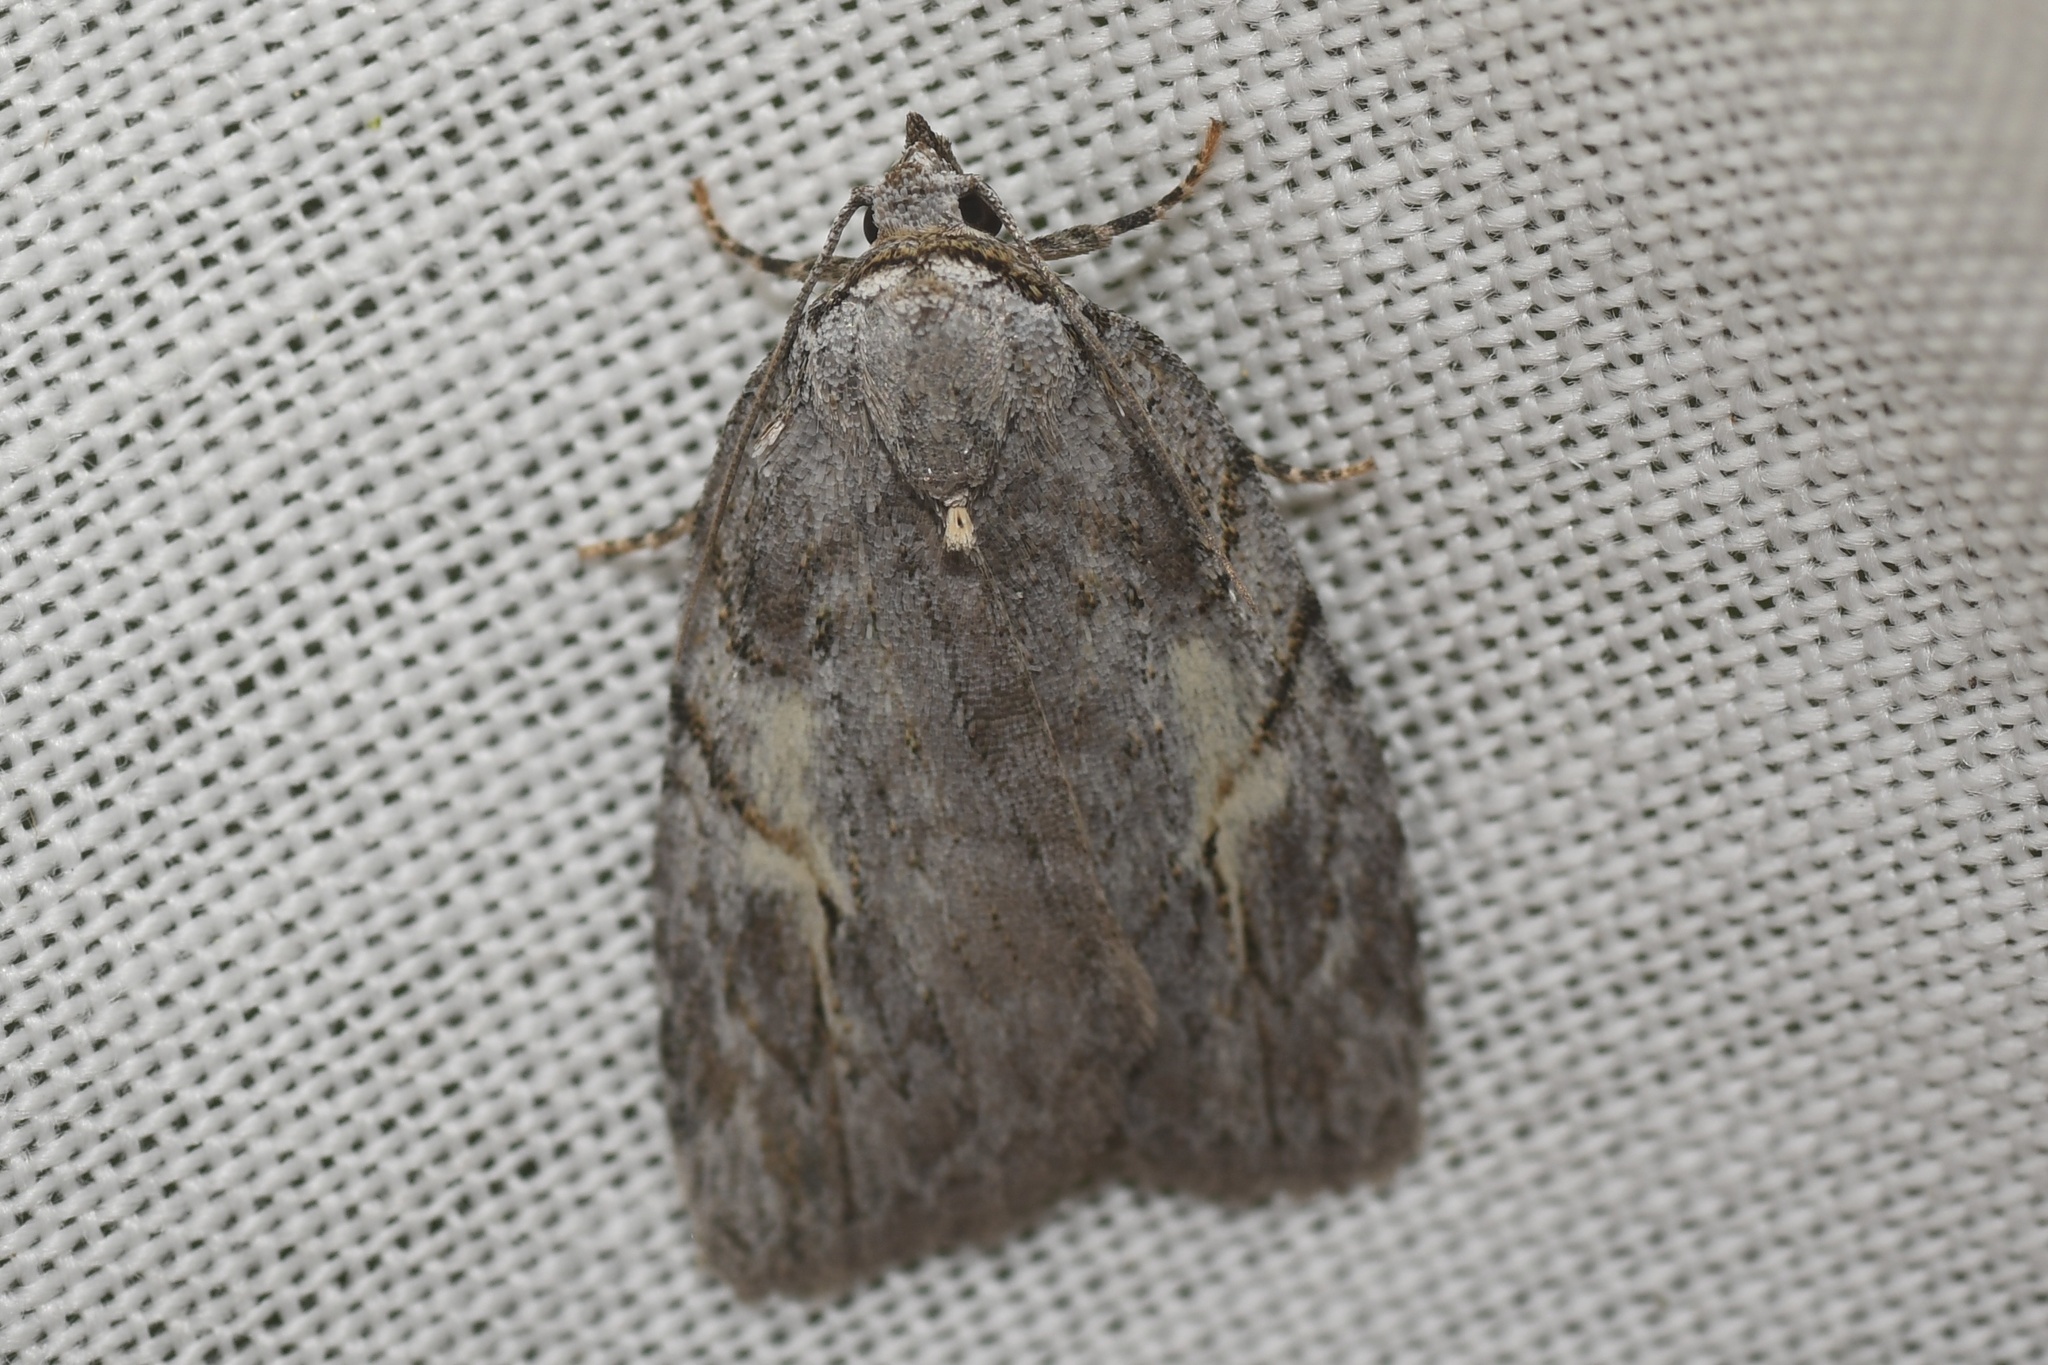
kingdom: Animalia
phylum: Arthropoda
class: Insecta
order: Lepidoptera
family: Noctuidae
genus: Balsa
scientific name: Balsa labecula
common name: White-blotched balsa moth
